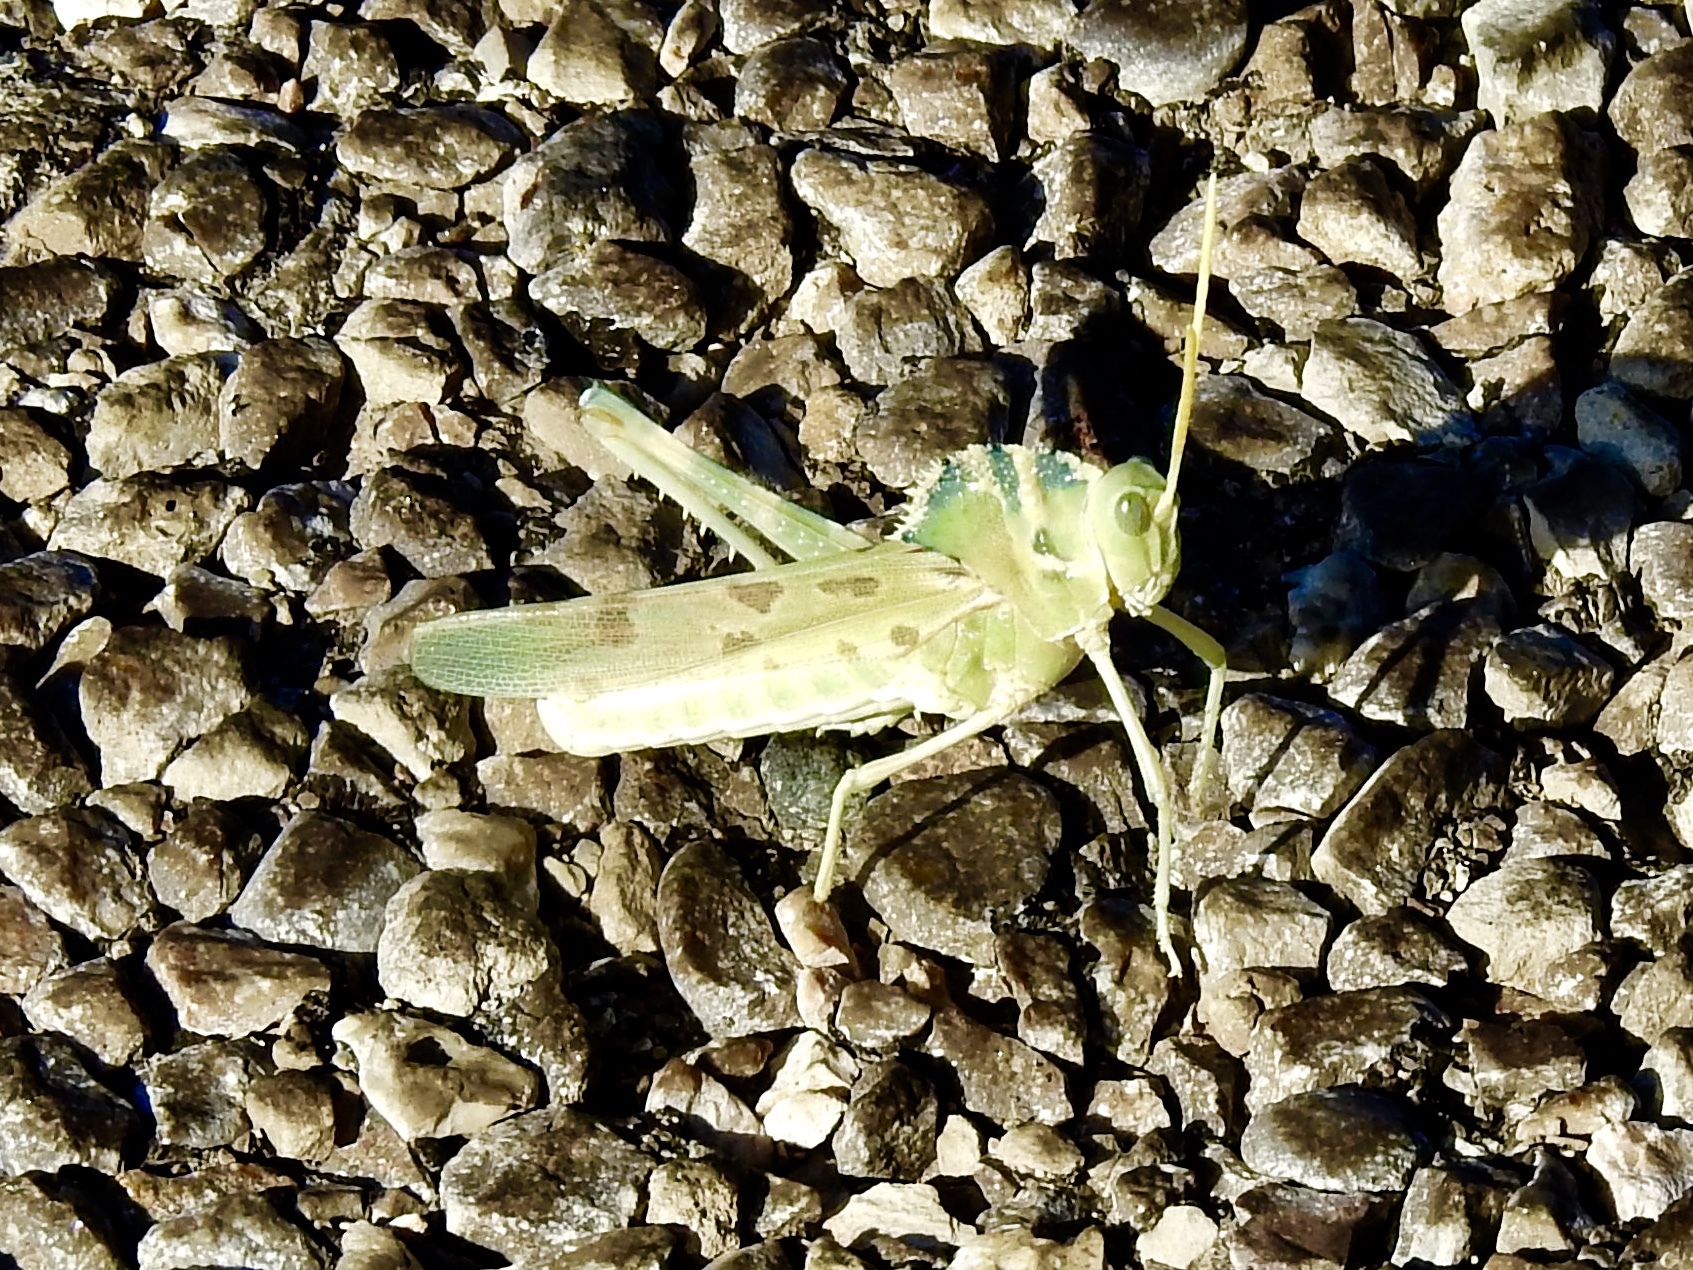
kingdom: Animalia
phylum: Arthropoda
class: Insecta
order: Orthoptera
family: Acrididae
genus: Tropidolophus
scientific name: Tropidolophus formosus
